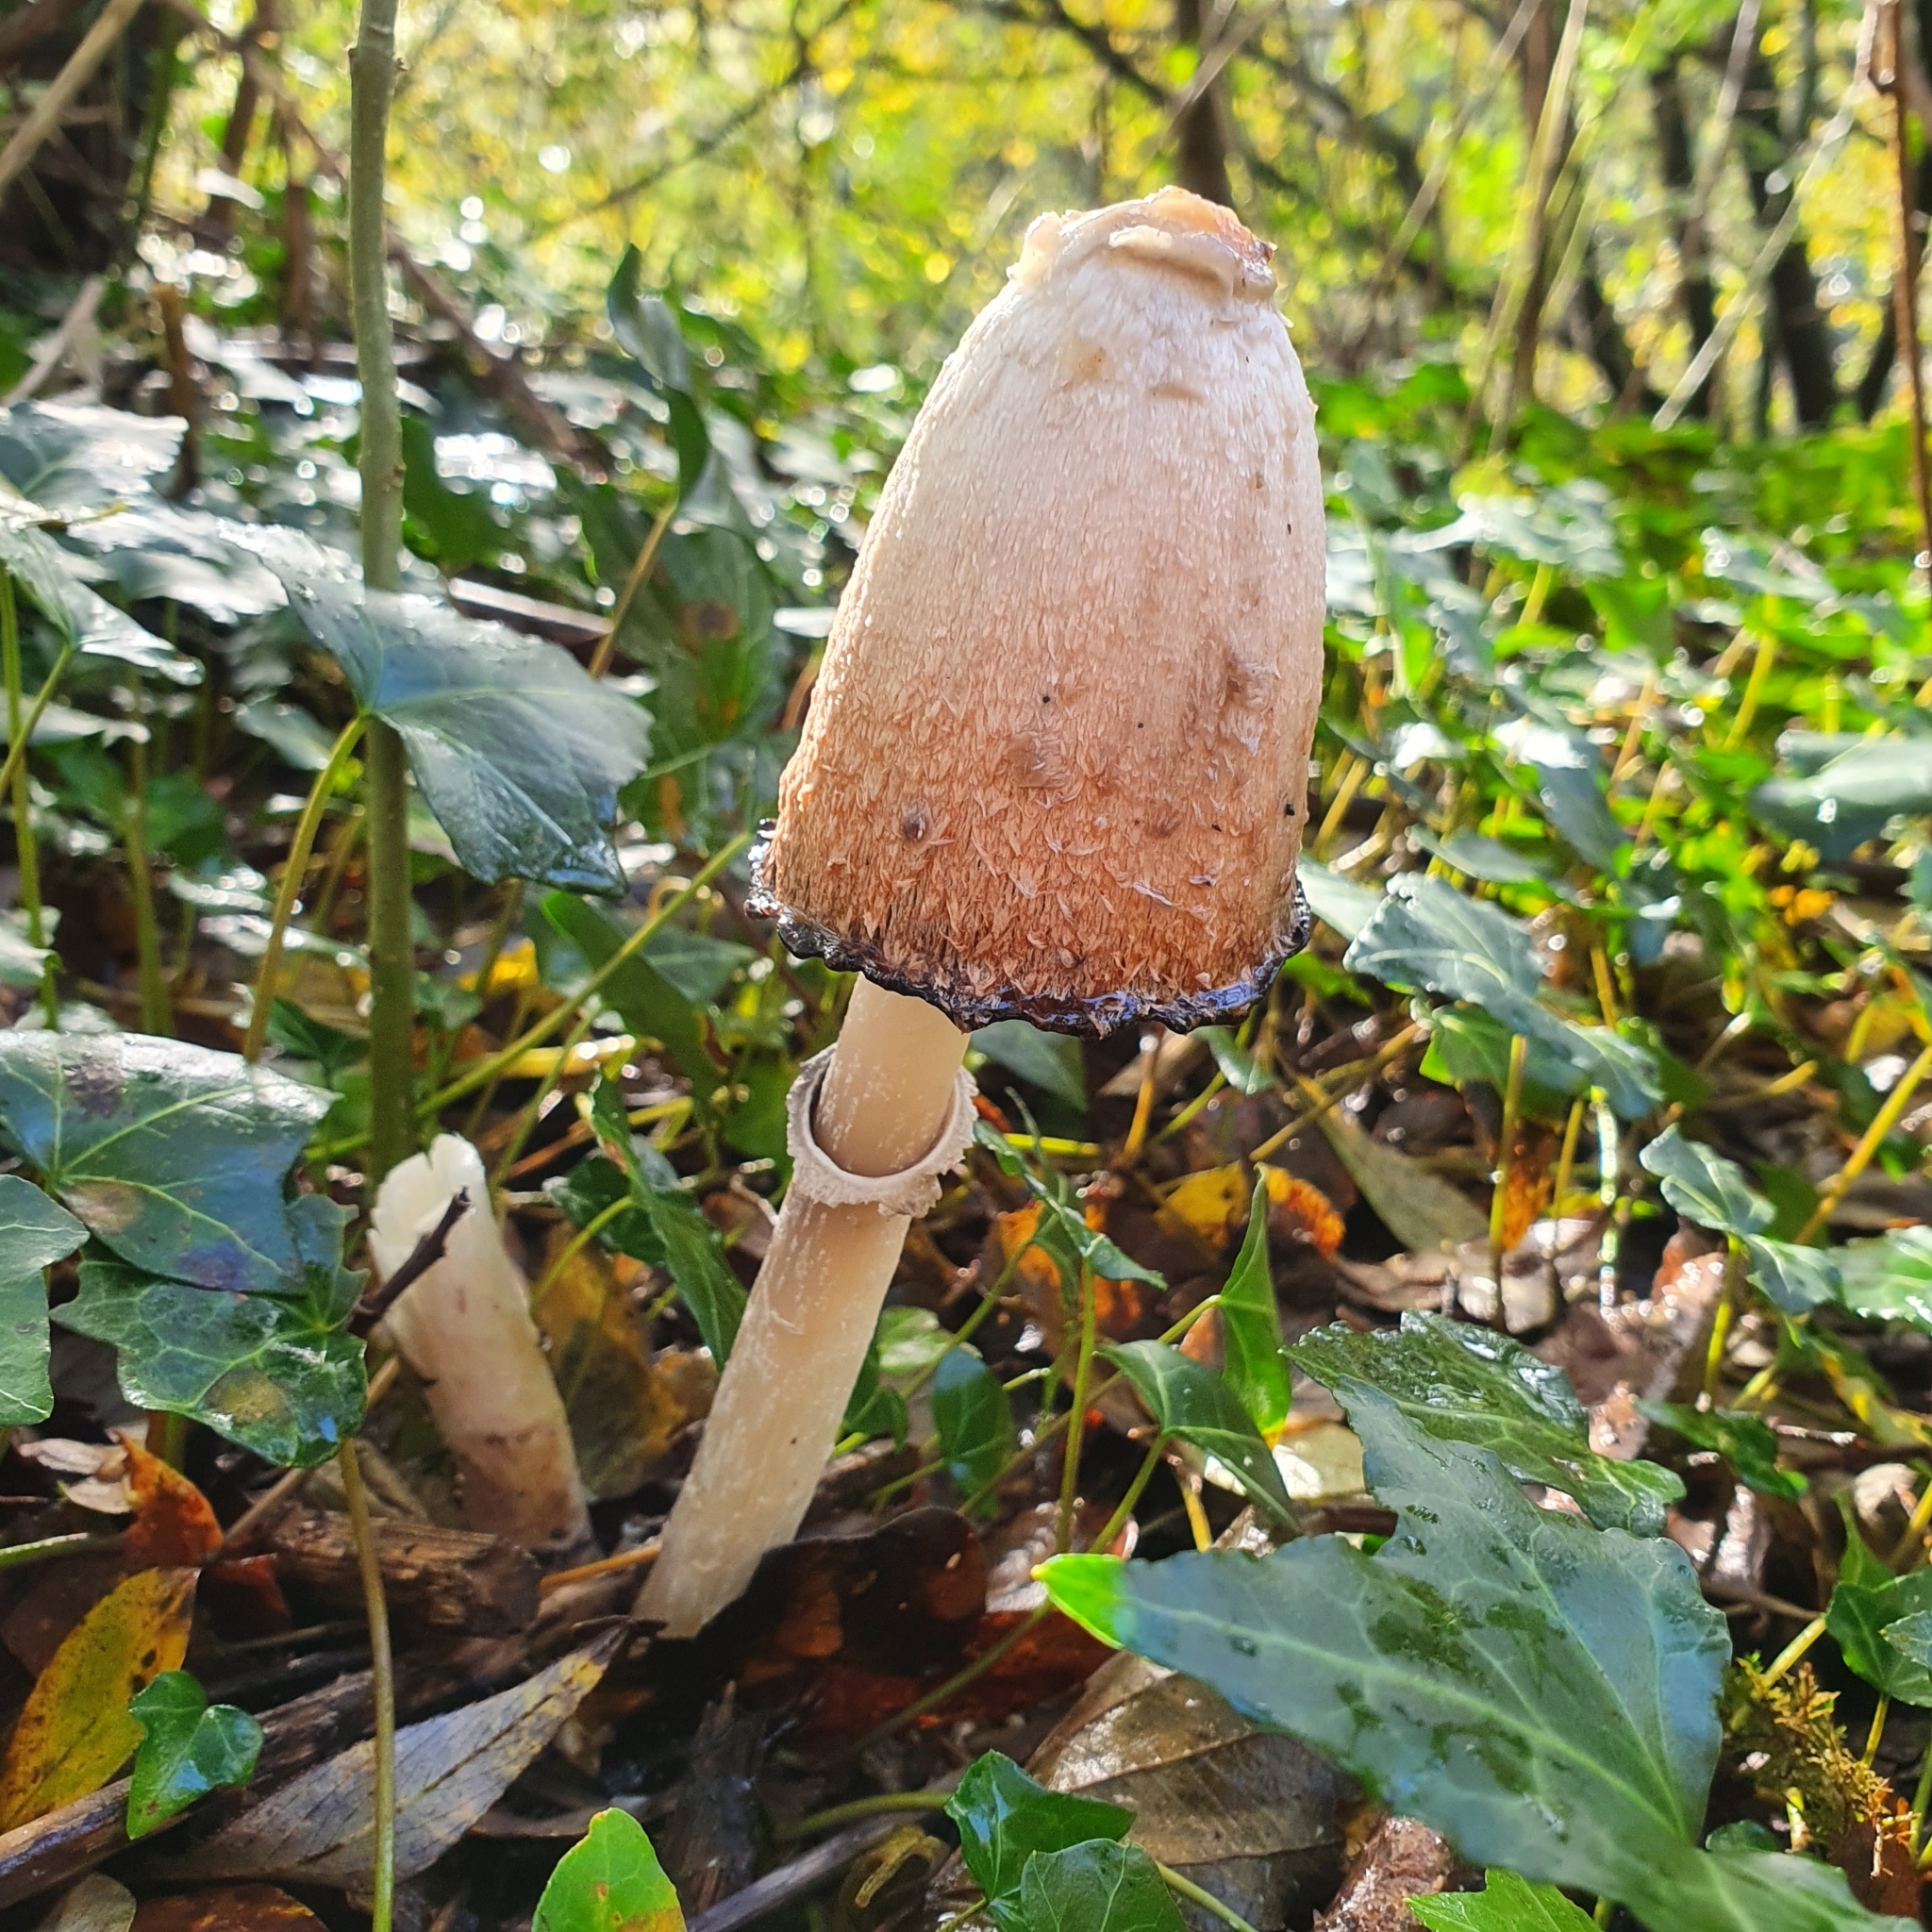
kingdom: Fungi
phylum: Basidiomycota
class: Agaricomycetes
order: Agaricales
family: Agaricaceae
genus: Coprinus
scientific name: Coprinus comatus
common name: Lawyer's wig
